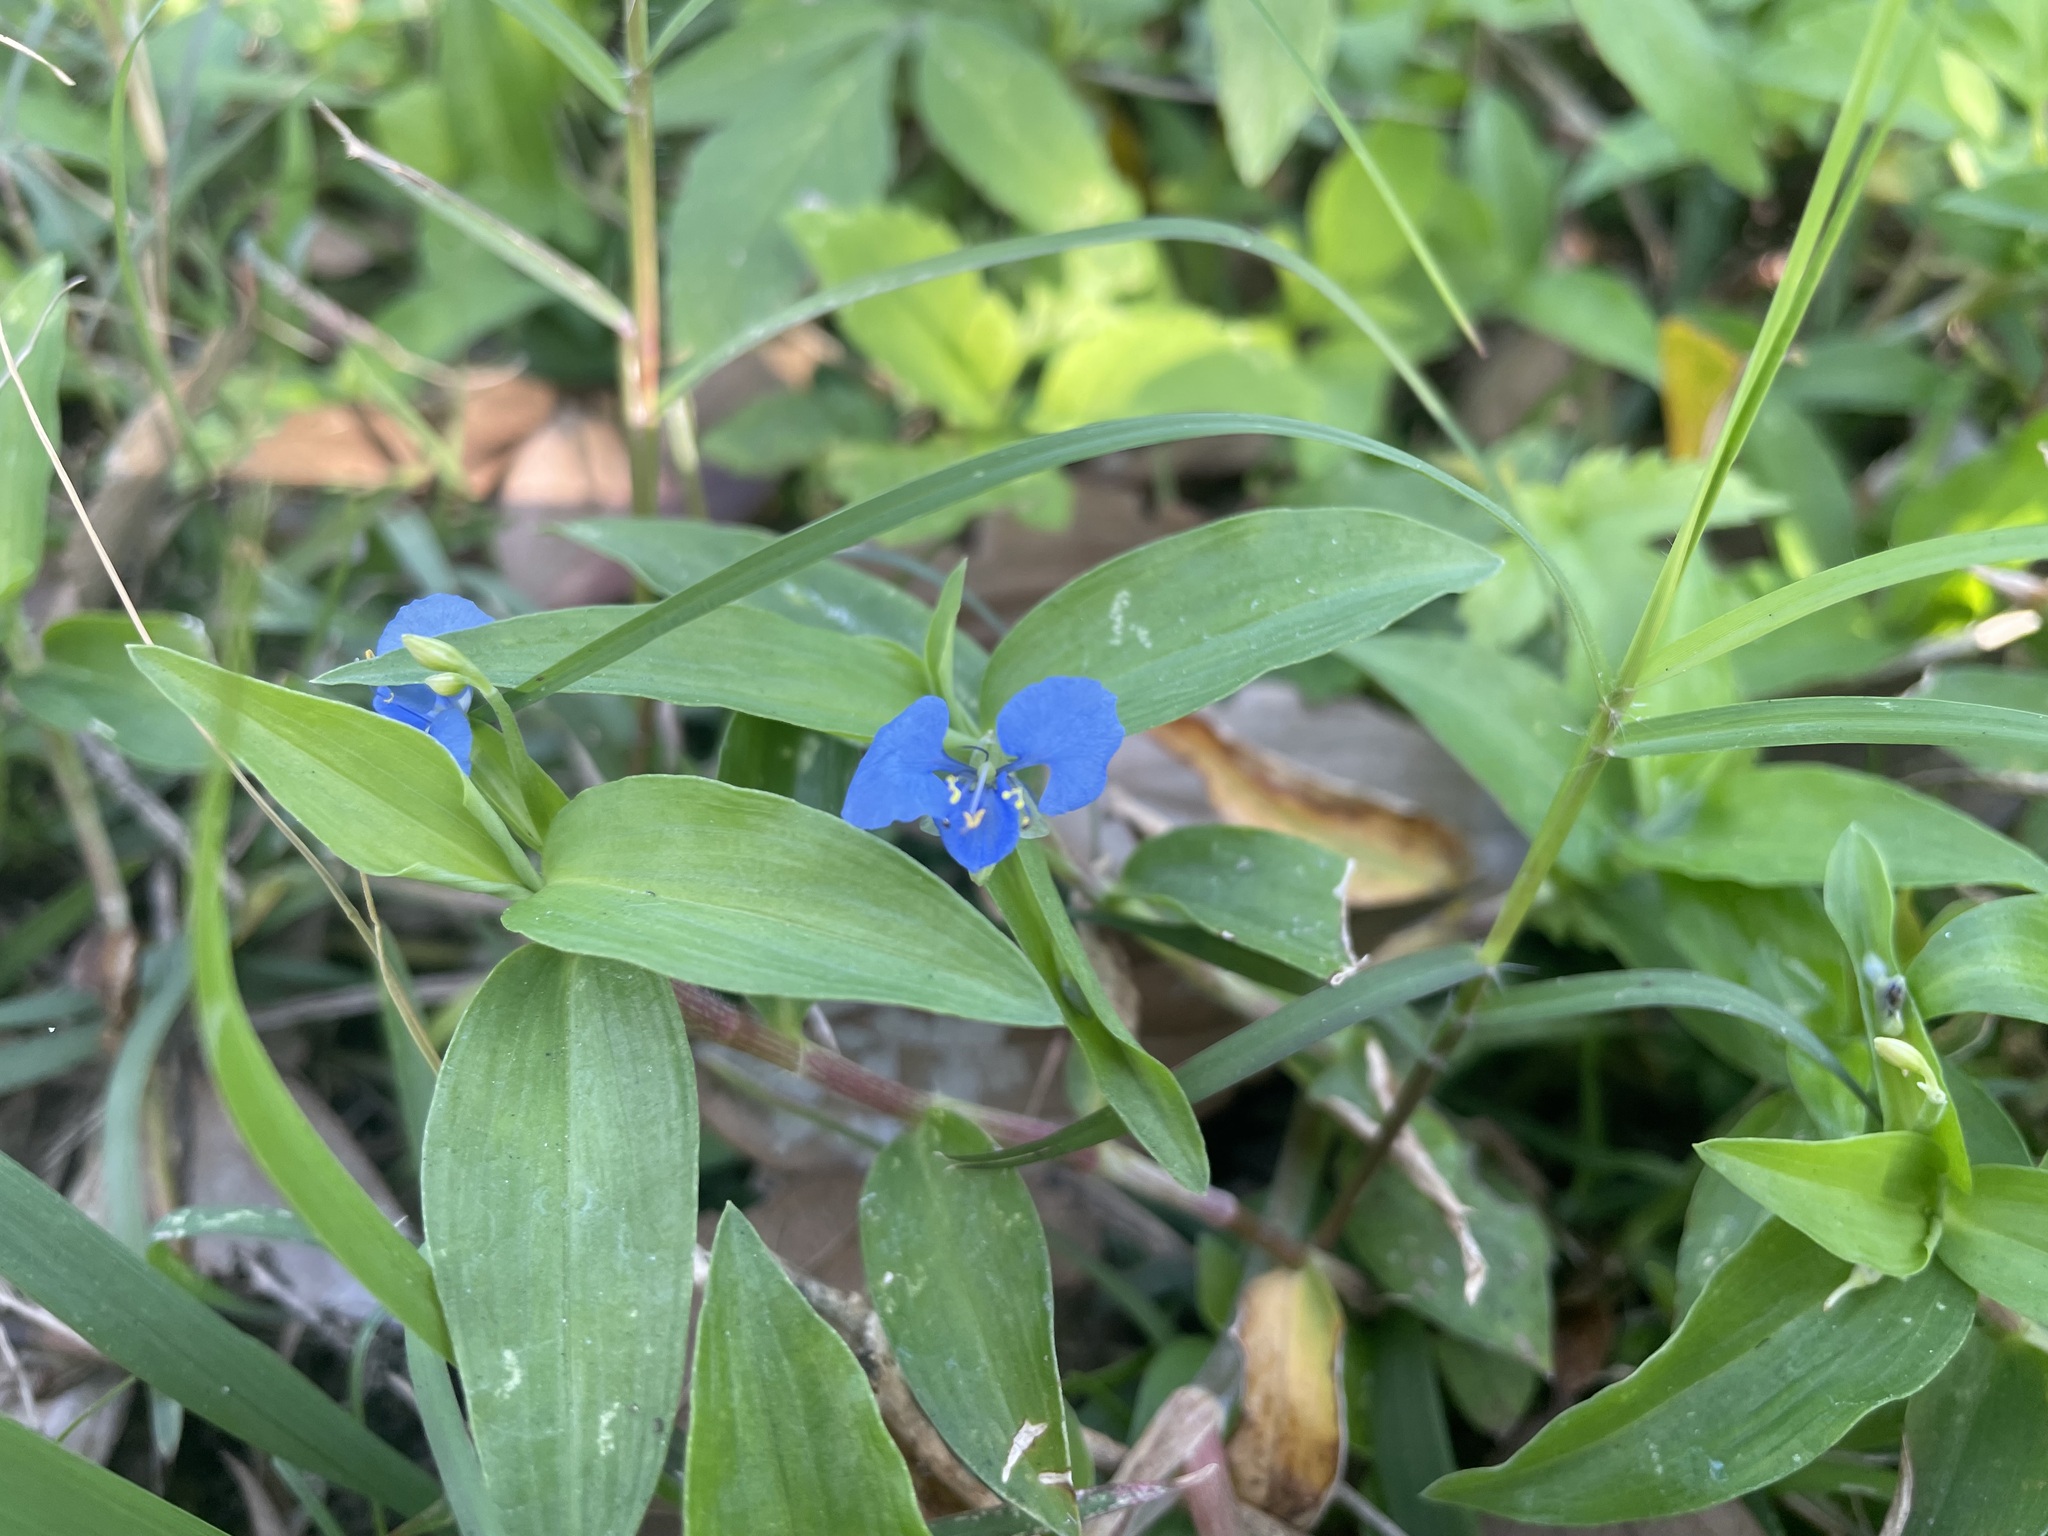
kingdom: Plantae
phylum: Tracheophyta
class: Liliopsida
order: Commelinales
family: Commelinaceae
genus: Commelina
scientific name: Commelina diffusa
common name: Climbing dayflower
